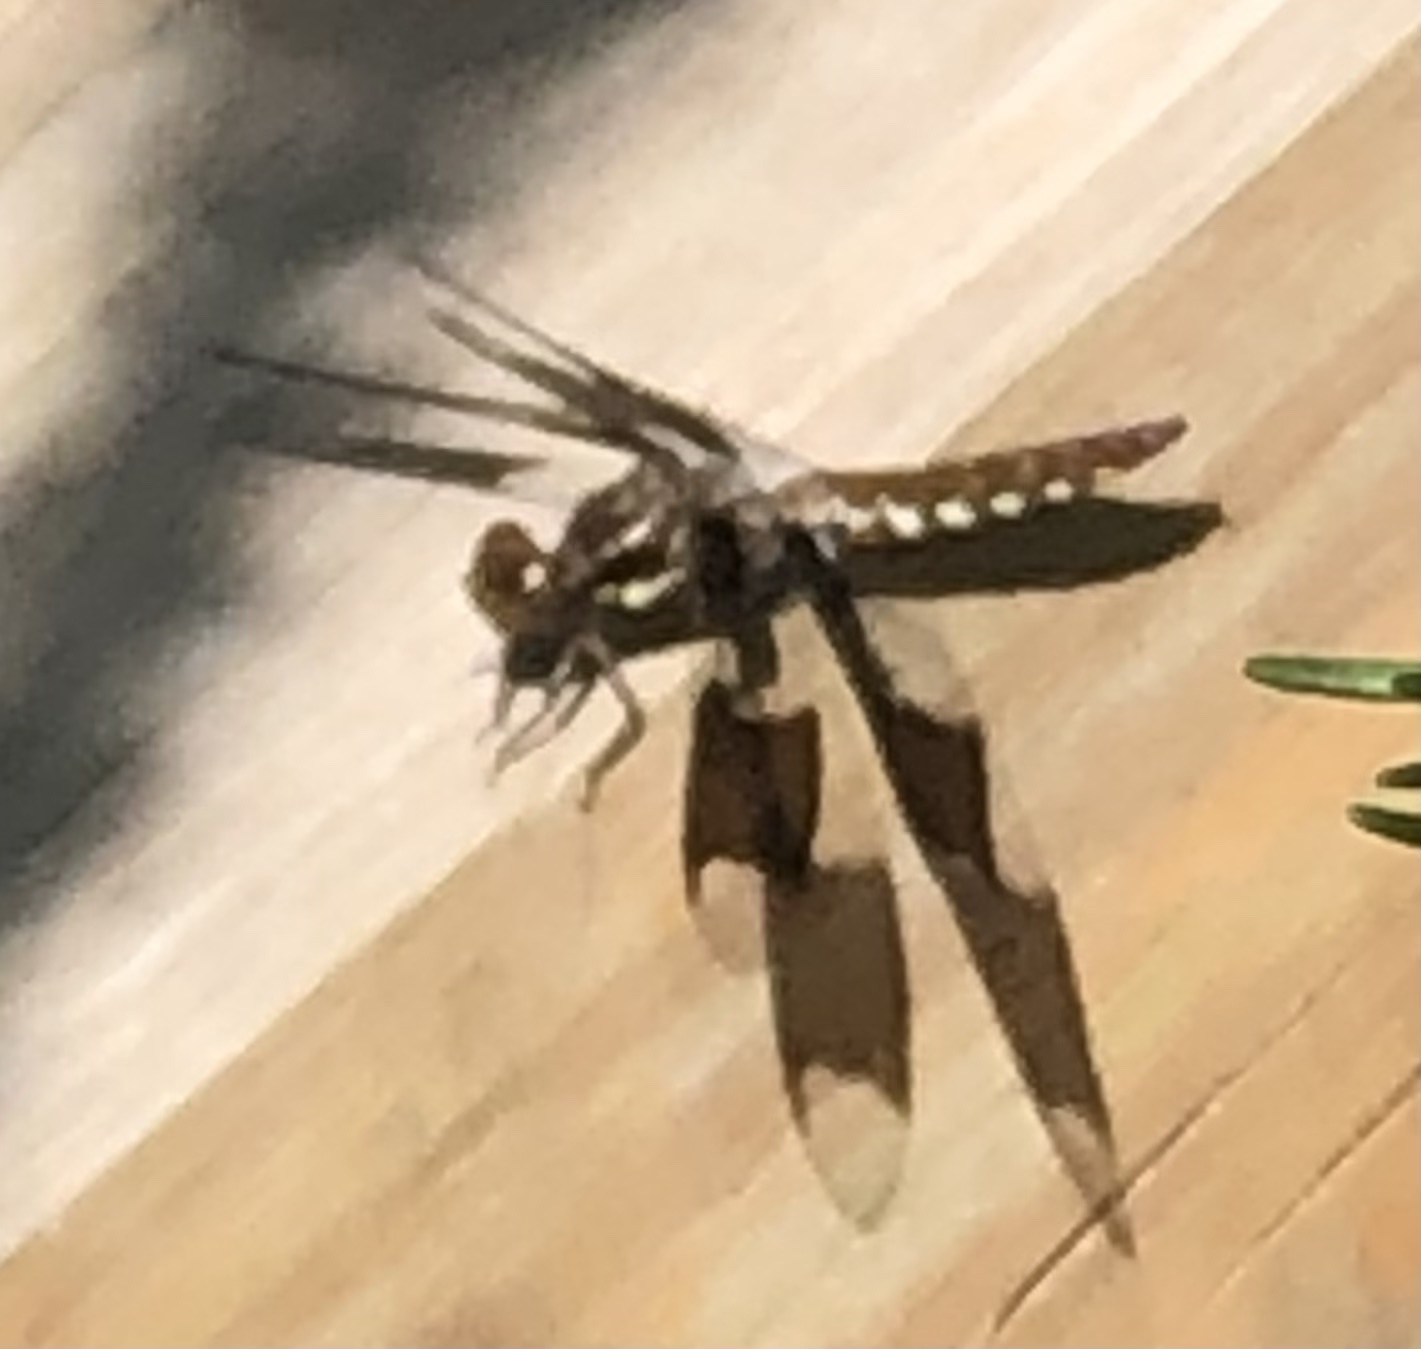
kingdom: Animalia
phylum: Arthropoda
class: Insecta
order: Odonata
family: Libellulidae
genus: Plathemis
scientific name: Plathemis lydia
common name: Common whitetail
